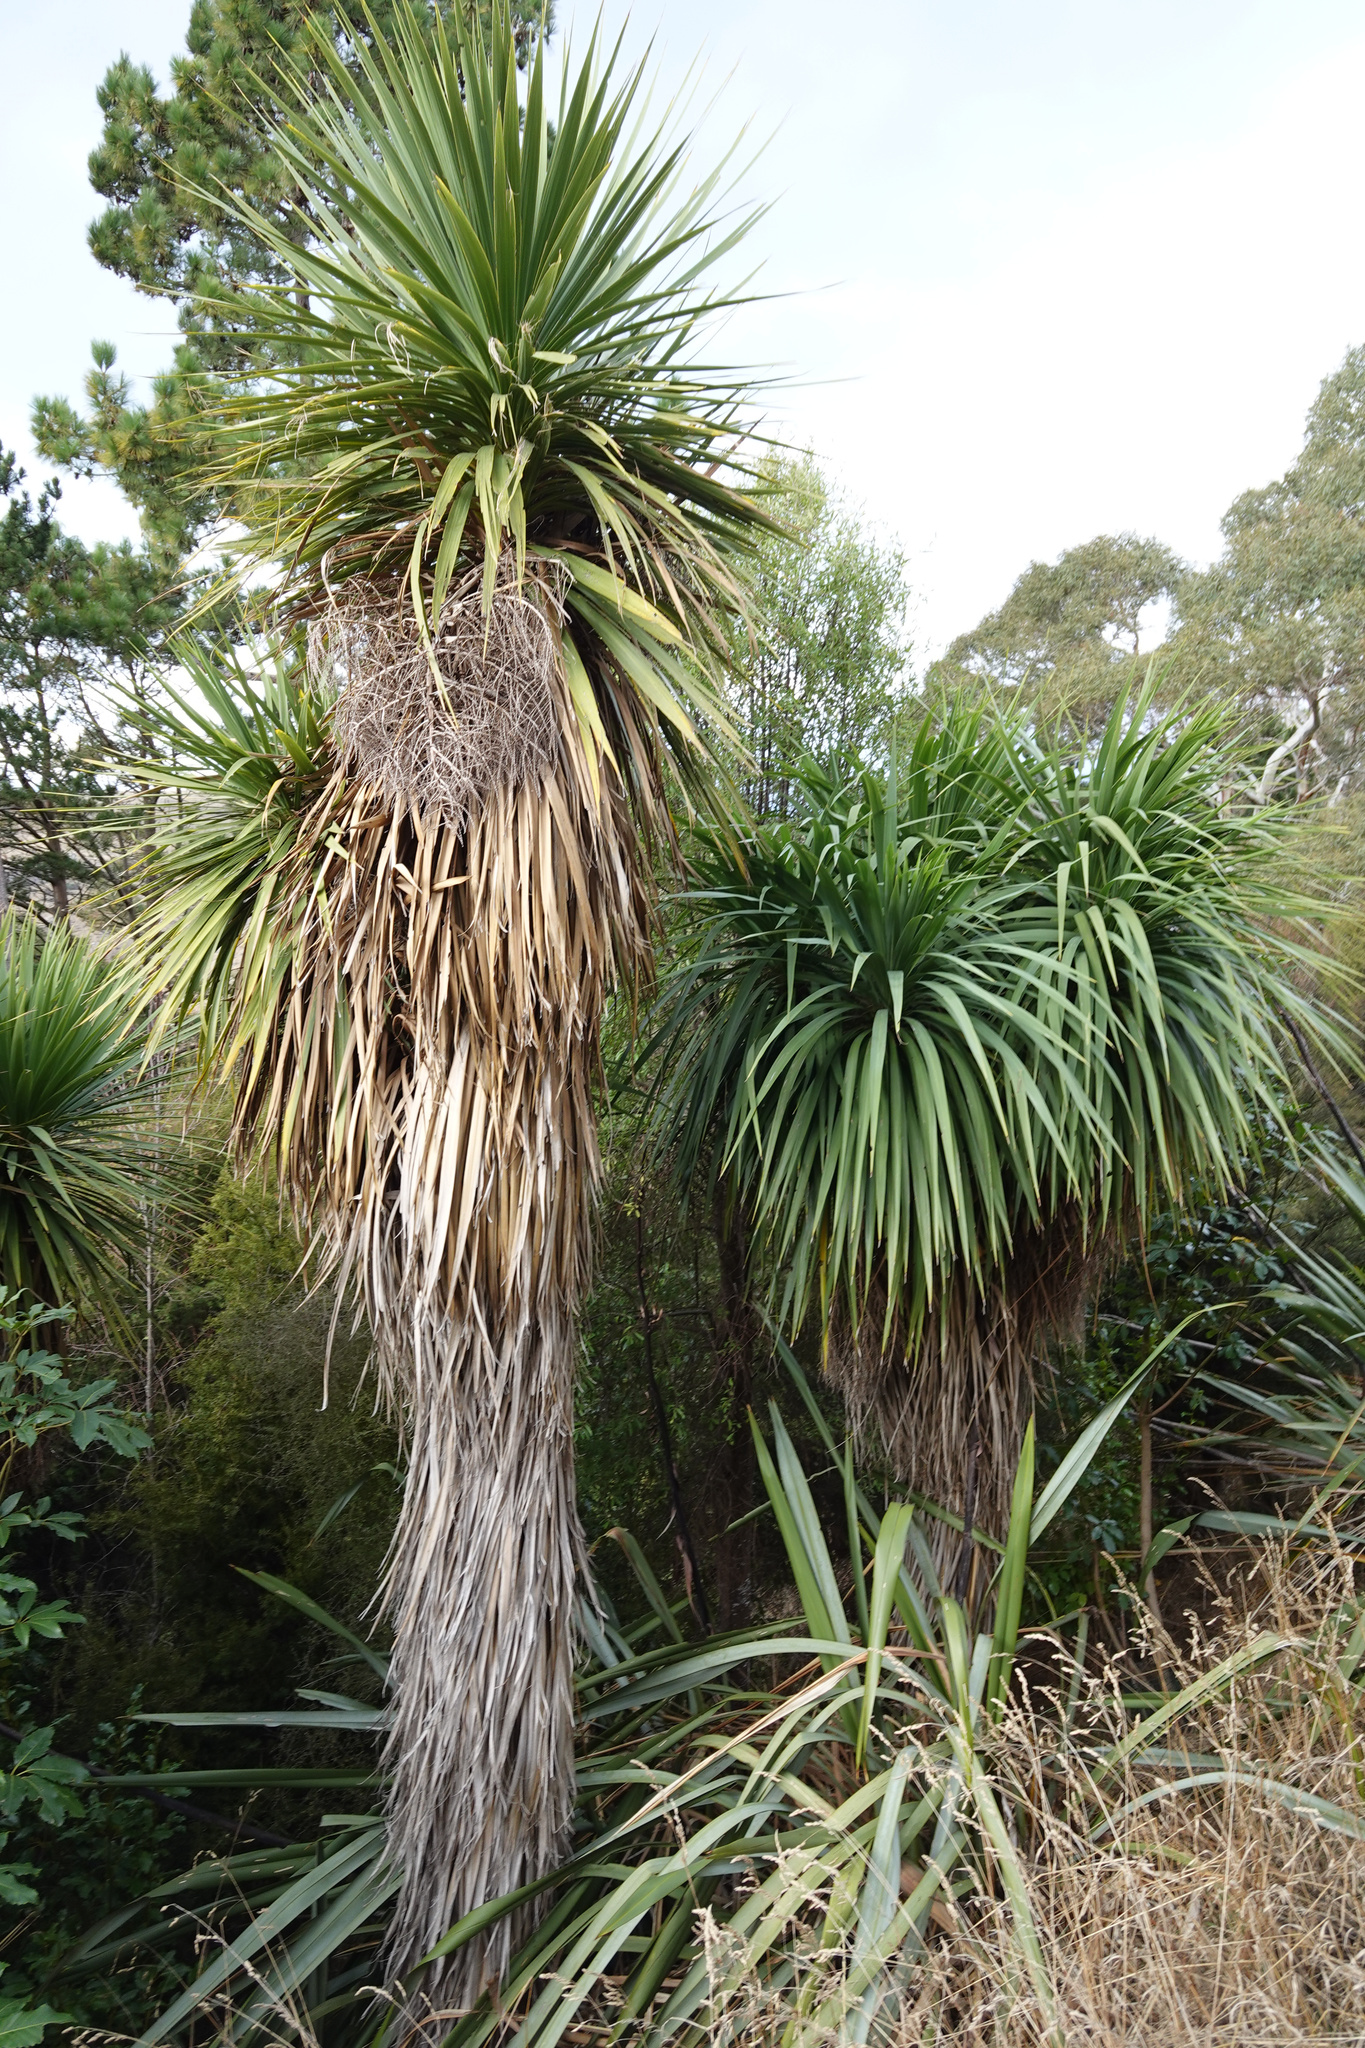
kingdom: Plantae
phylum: Tracheophyta
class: Liliopsida
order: Asparagales
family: Asparagaceae
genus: Cordyline
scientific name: Cordyline australis
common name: Cabbage-palm
